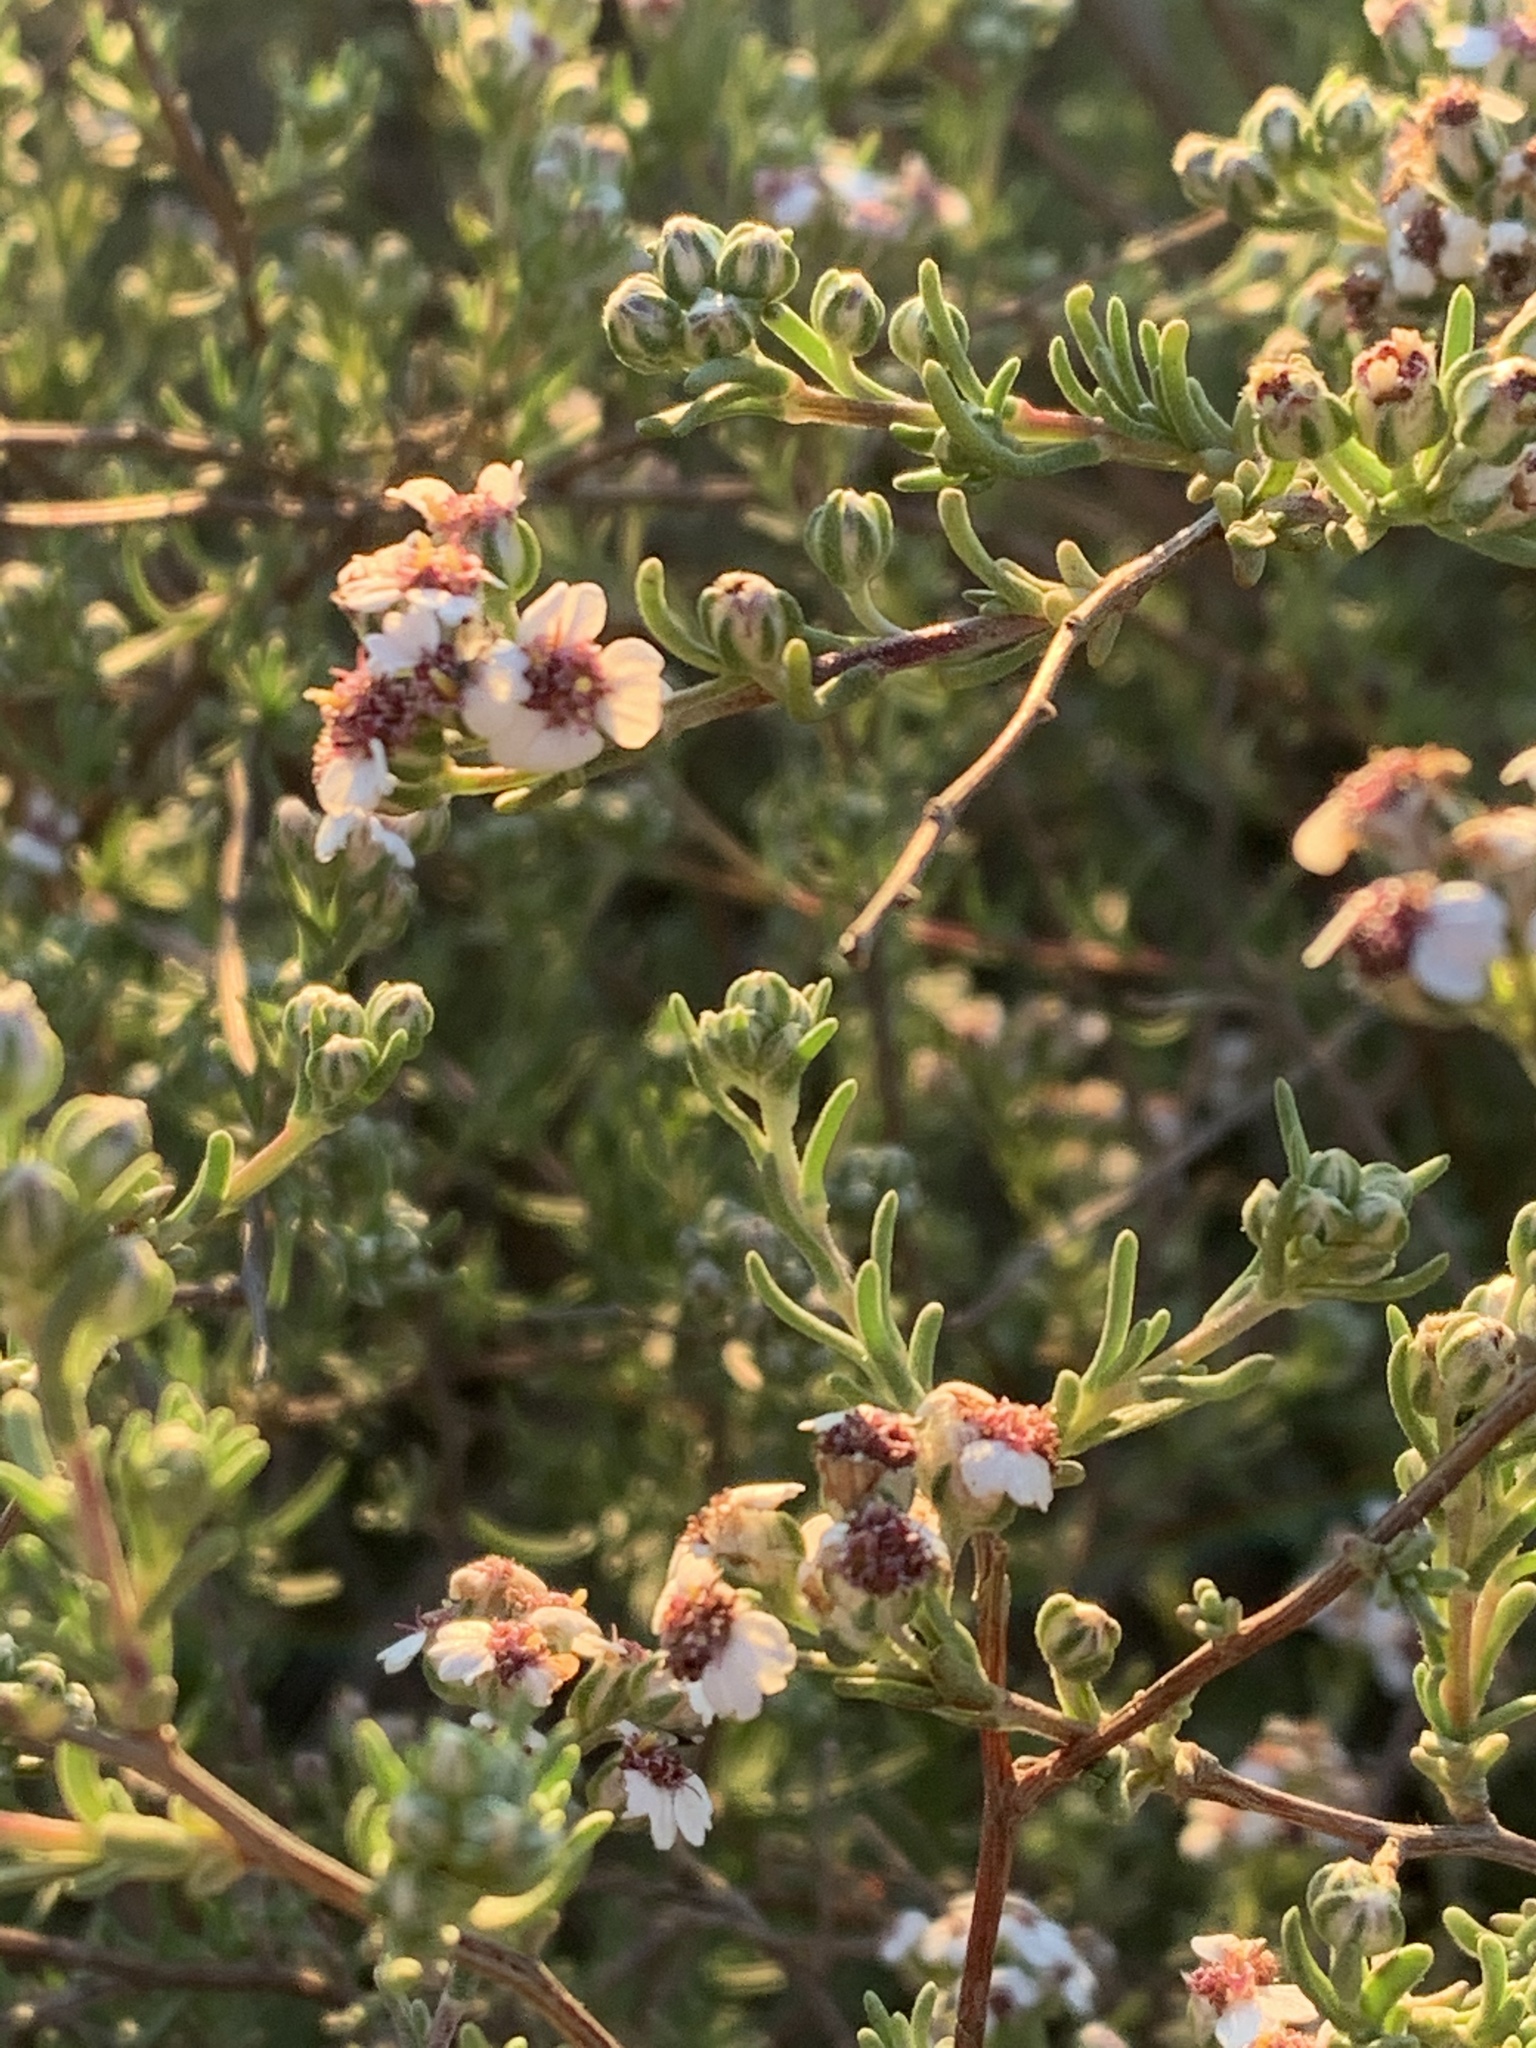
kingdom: Plantae
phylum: Tracheophyta
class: Magnoliopsida
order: Asterales
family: Asteraceae
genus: Eriocephalus
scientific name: Eriocephalus africanus
